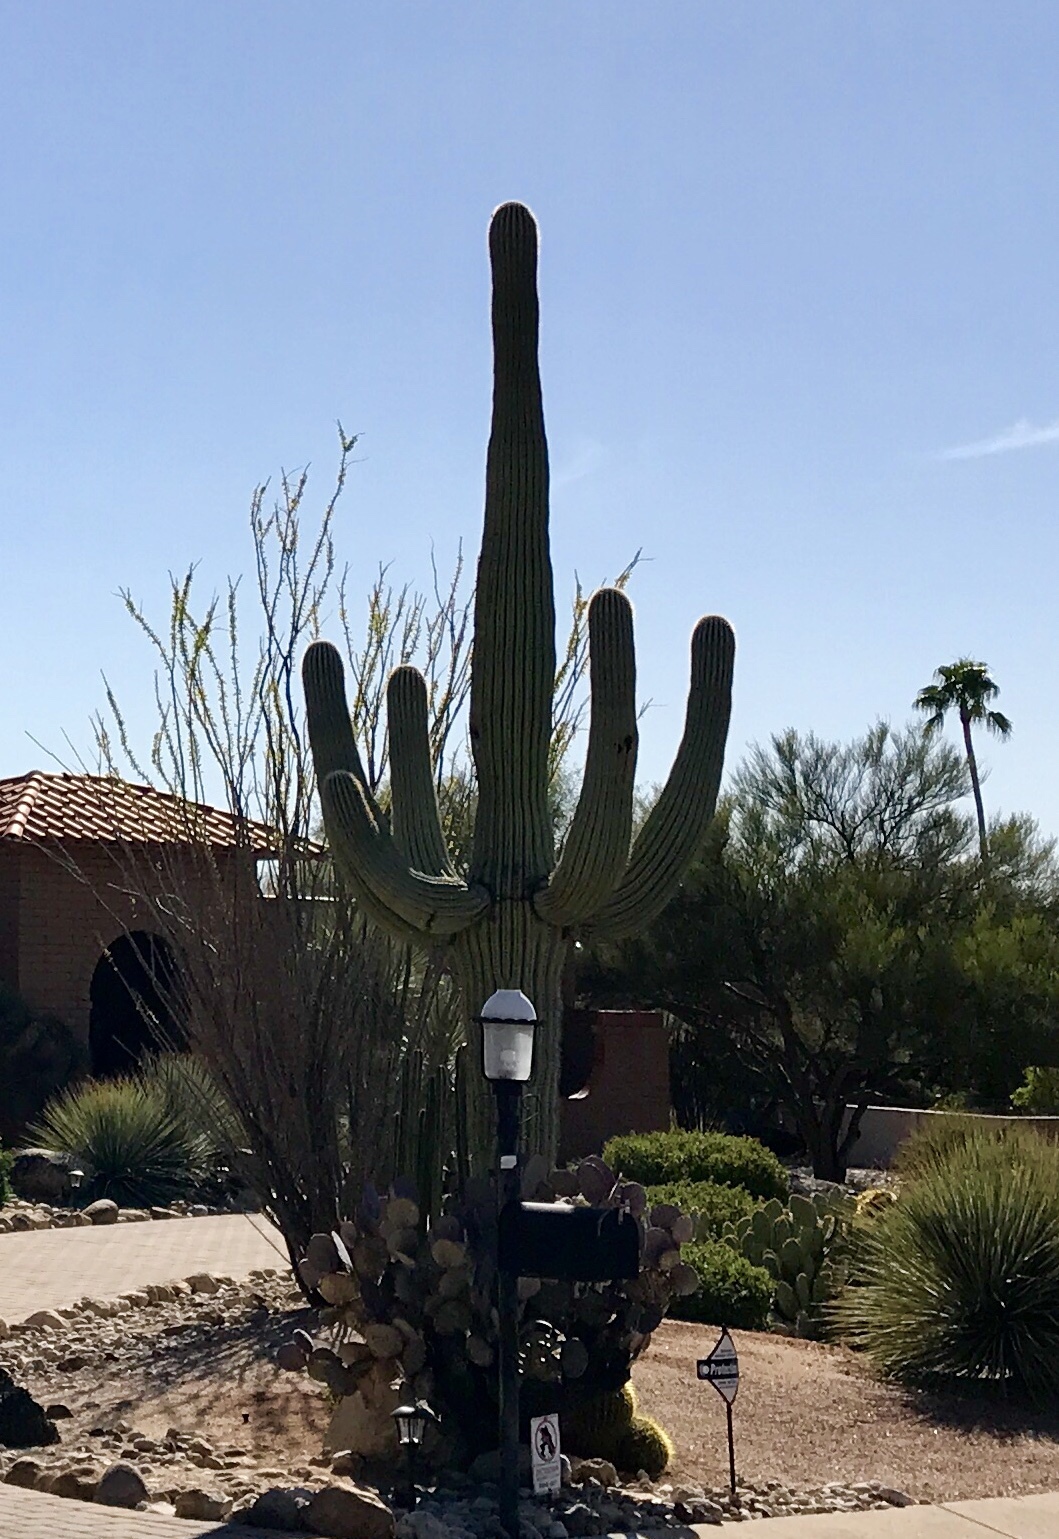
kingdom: Plantae
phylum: Tracheophyta
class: Magnoliopsida
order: Caryophyllales
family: Cactaceae
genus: Carnegiea
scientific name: Carnegiea gigantea
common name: Saguaro
